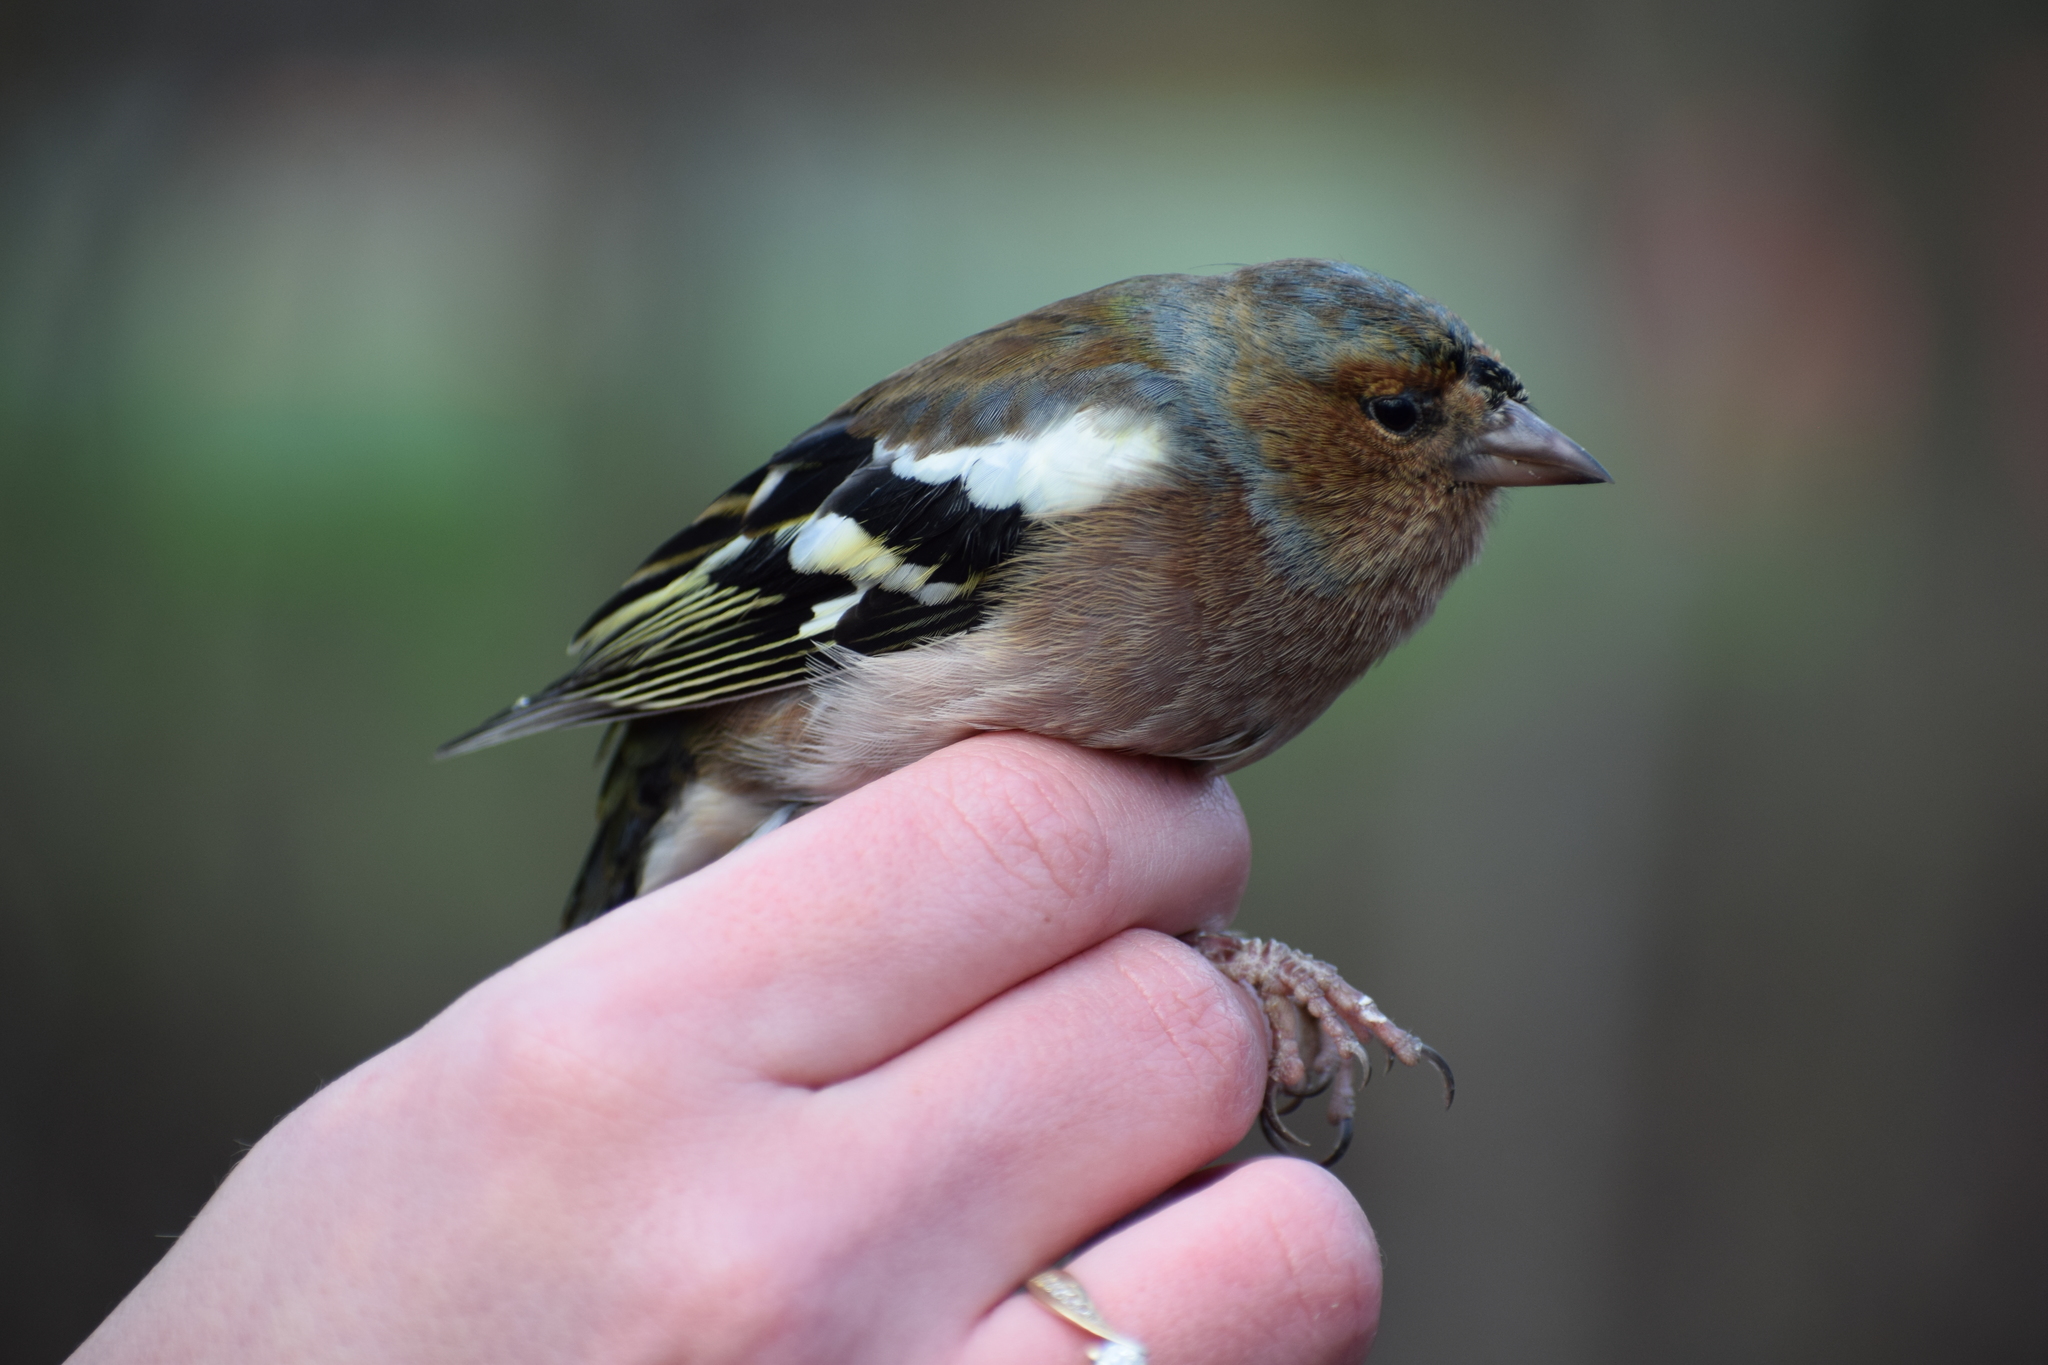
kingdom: Animalia
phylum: Chordata
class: Aves
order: Passeriformes
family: Fringillidae
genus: Fringilla
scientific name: Fringilla coelebs
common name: Common chaffinch
